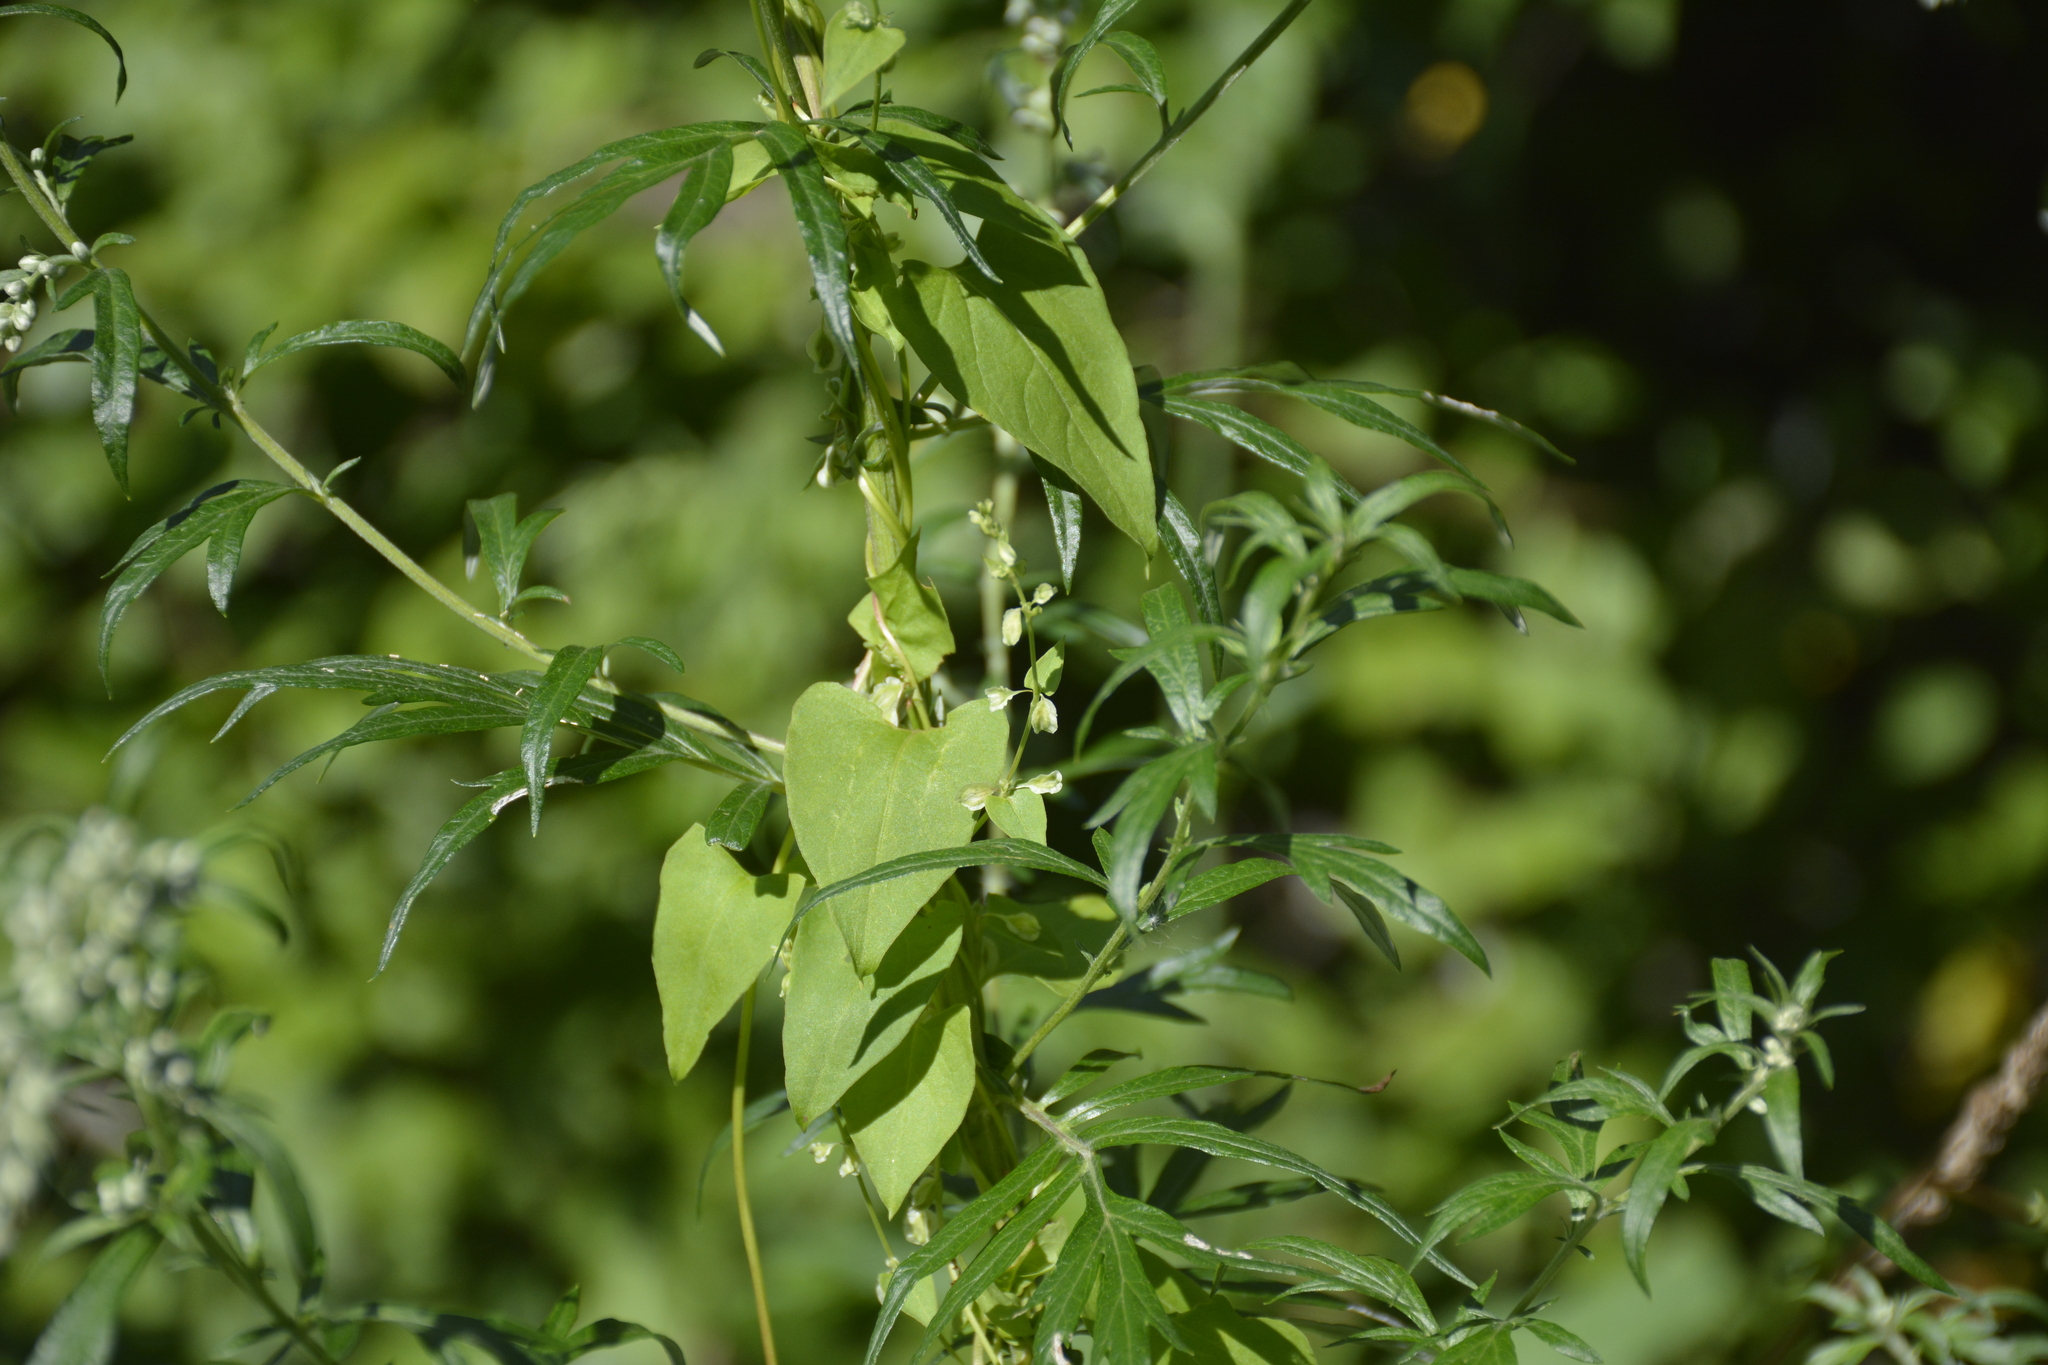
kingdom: Plantae
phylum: Tracheophyta
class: Magnoliopsida
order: Caryophyllales
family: Polygonaceae
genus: Fallopia
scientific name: Fallopia dumetorum
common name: Copse-bindweed
